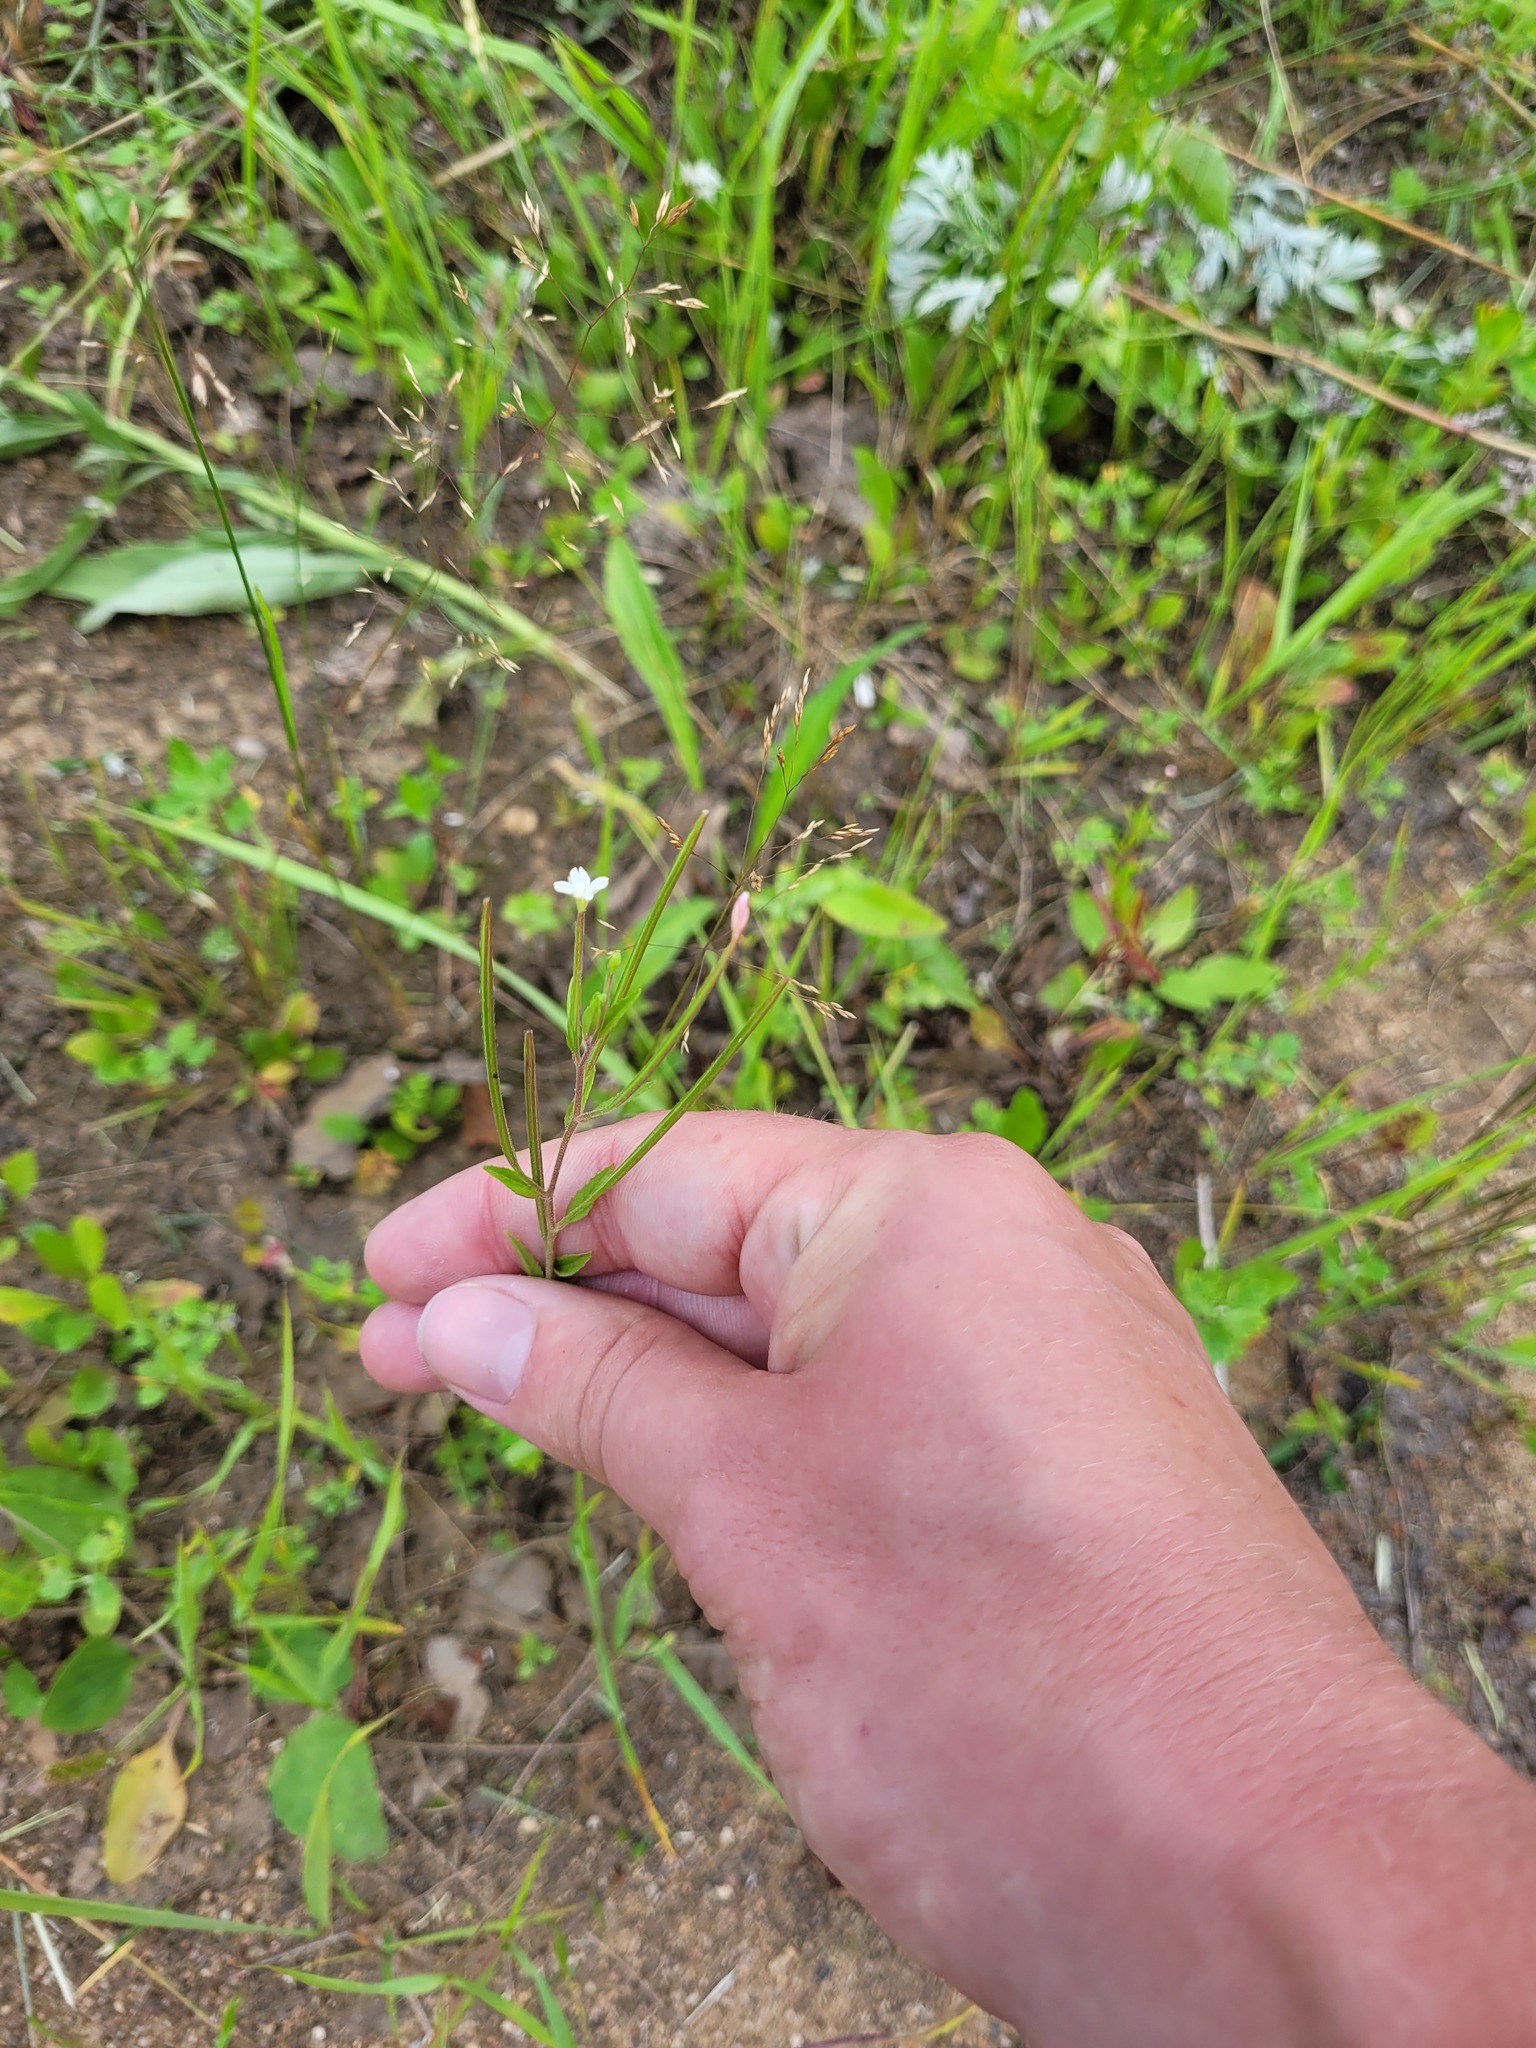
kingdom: Plantae
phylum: Tracheophyta
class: Magnoliopsida
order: Myrtales
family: Onagraceae
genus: Epilobium
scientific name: Epilobium pseudorubescens
